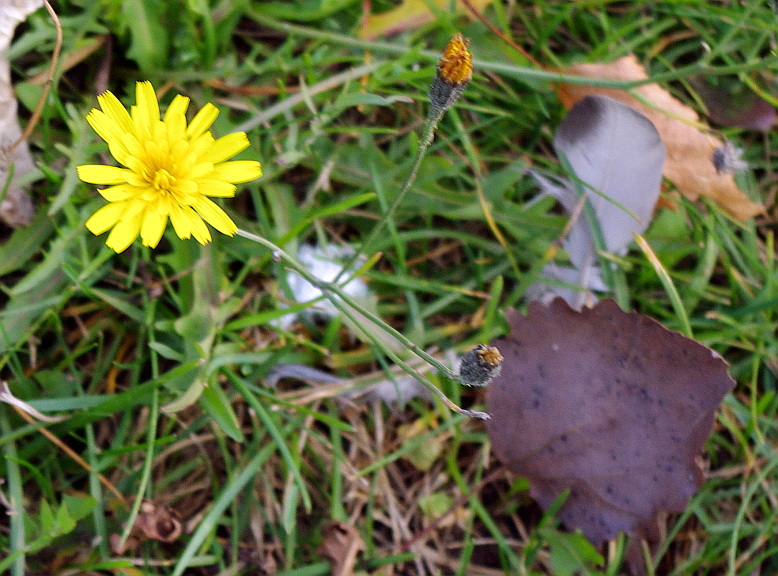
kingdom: Plantae
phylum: Tracheophyta
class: Magnoliopsida
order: Asterales
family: Asteraceae
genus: Scorzoneroides
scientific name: Scorzoneroides autumnalis
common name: Autumn hawkbit
